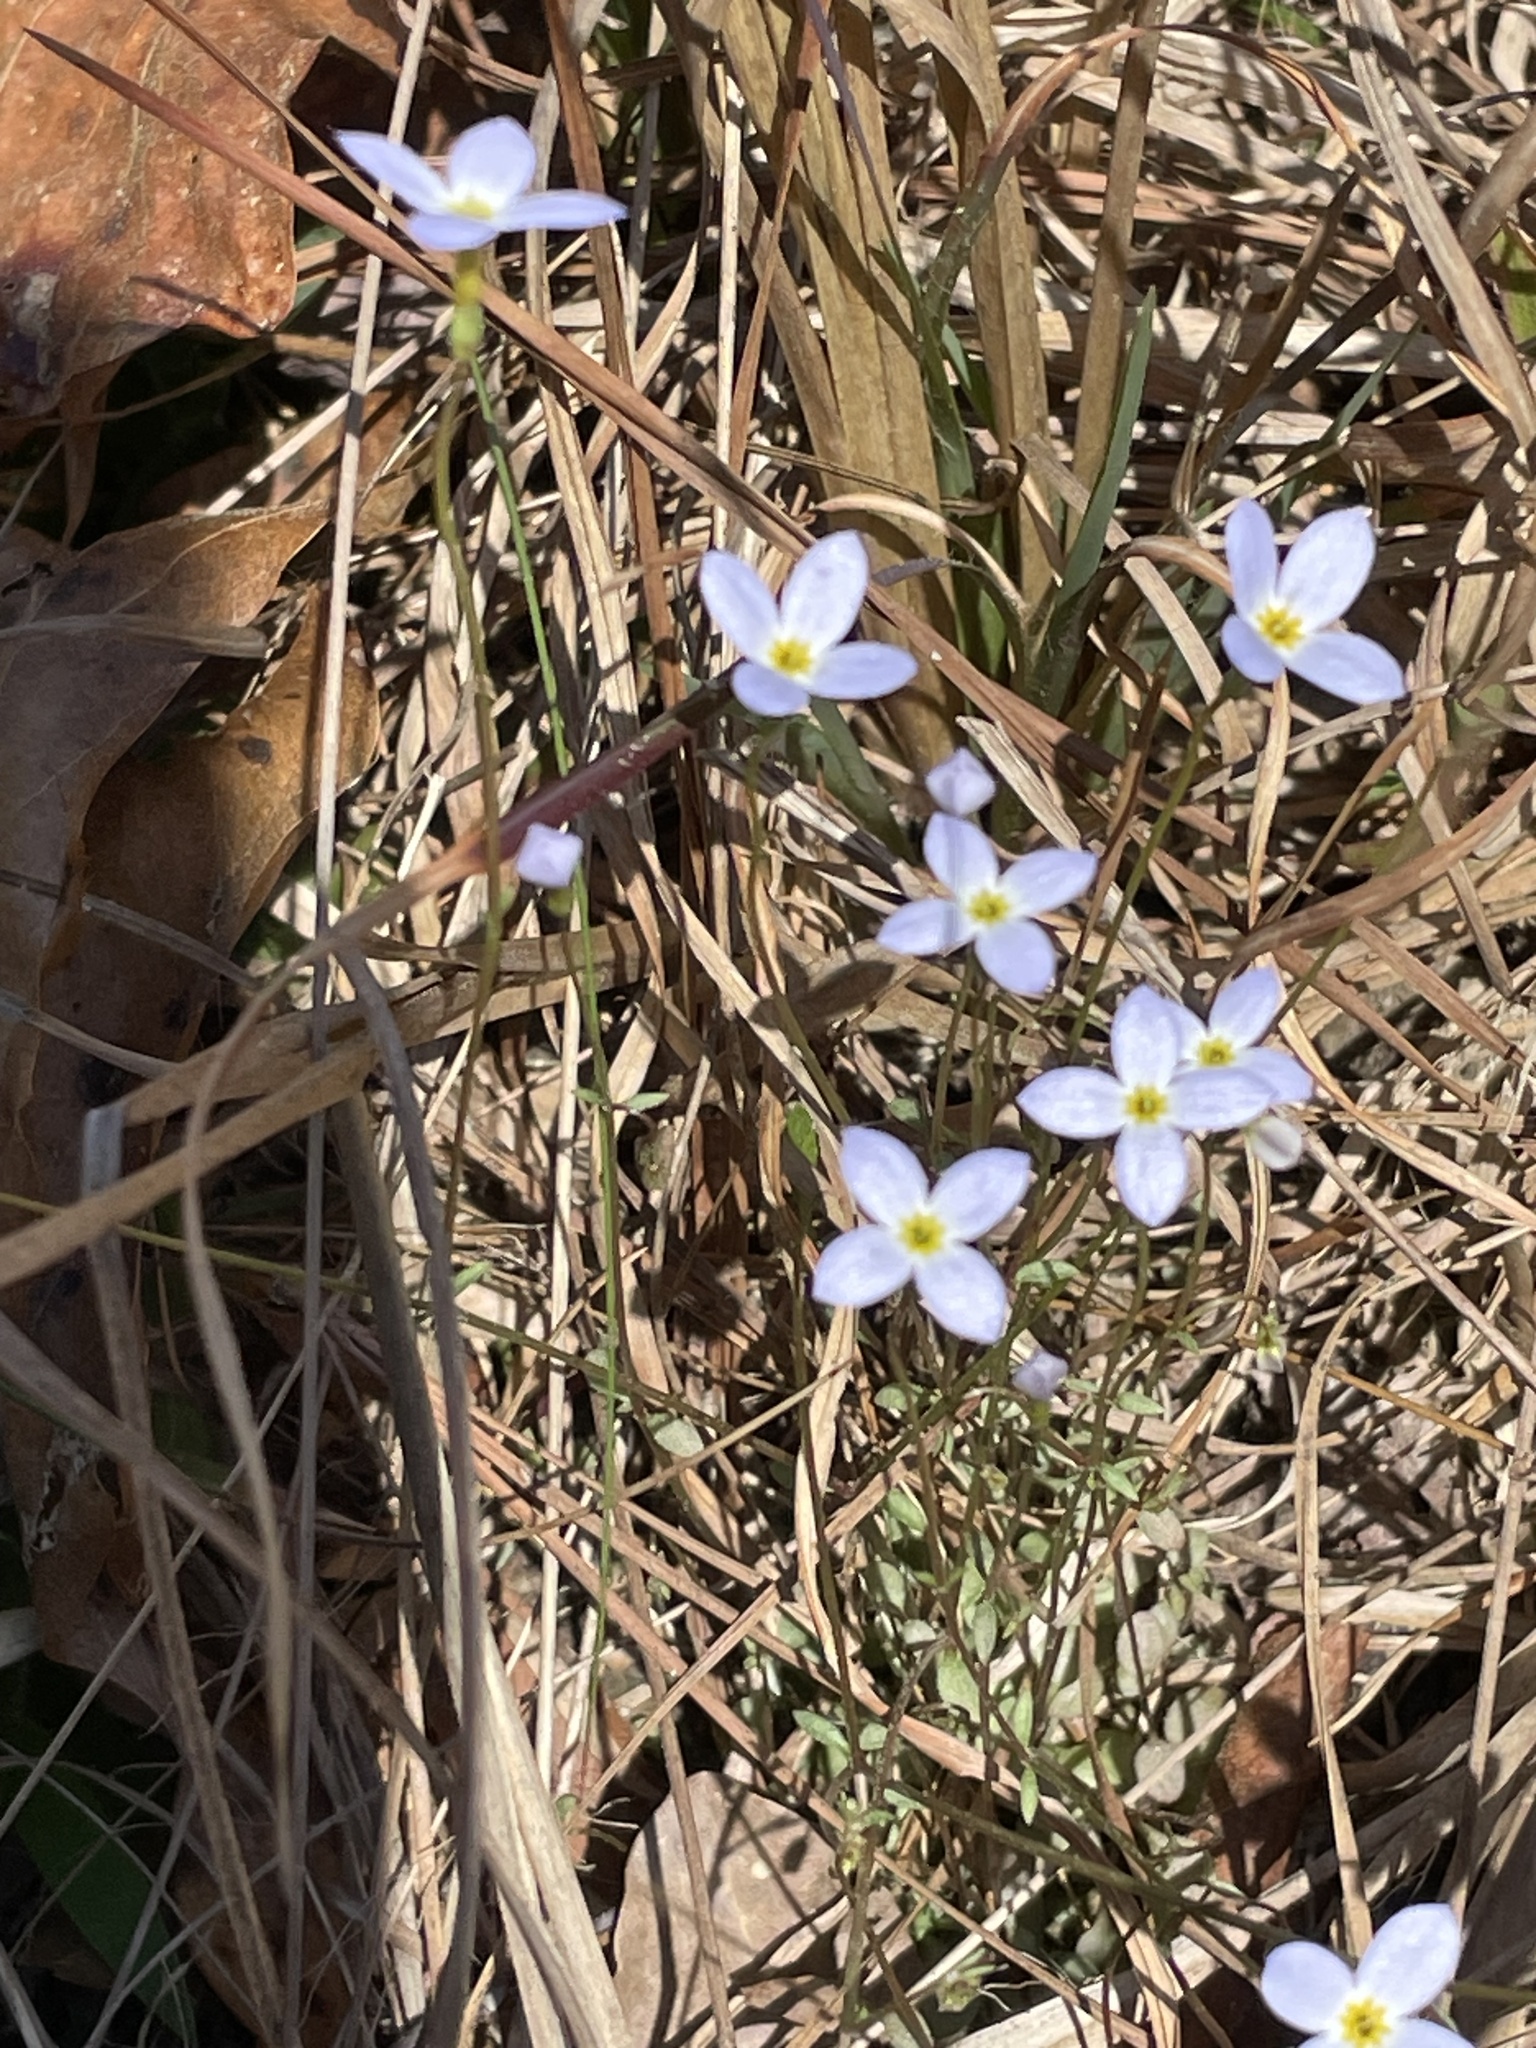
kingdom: Plantae
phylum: Tracheophyta
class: Magnoliopsida
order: Gentianales
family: Rubiaceae
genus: Houstonia
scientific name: Houstonia caerulea
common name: Bluets
